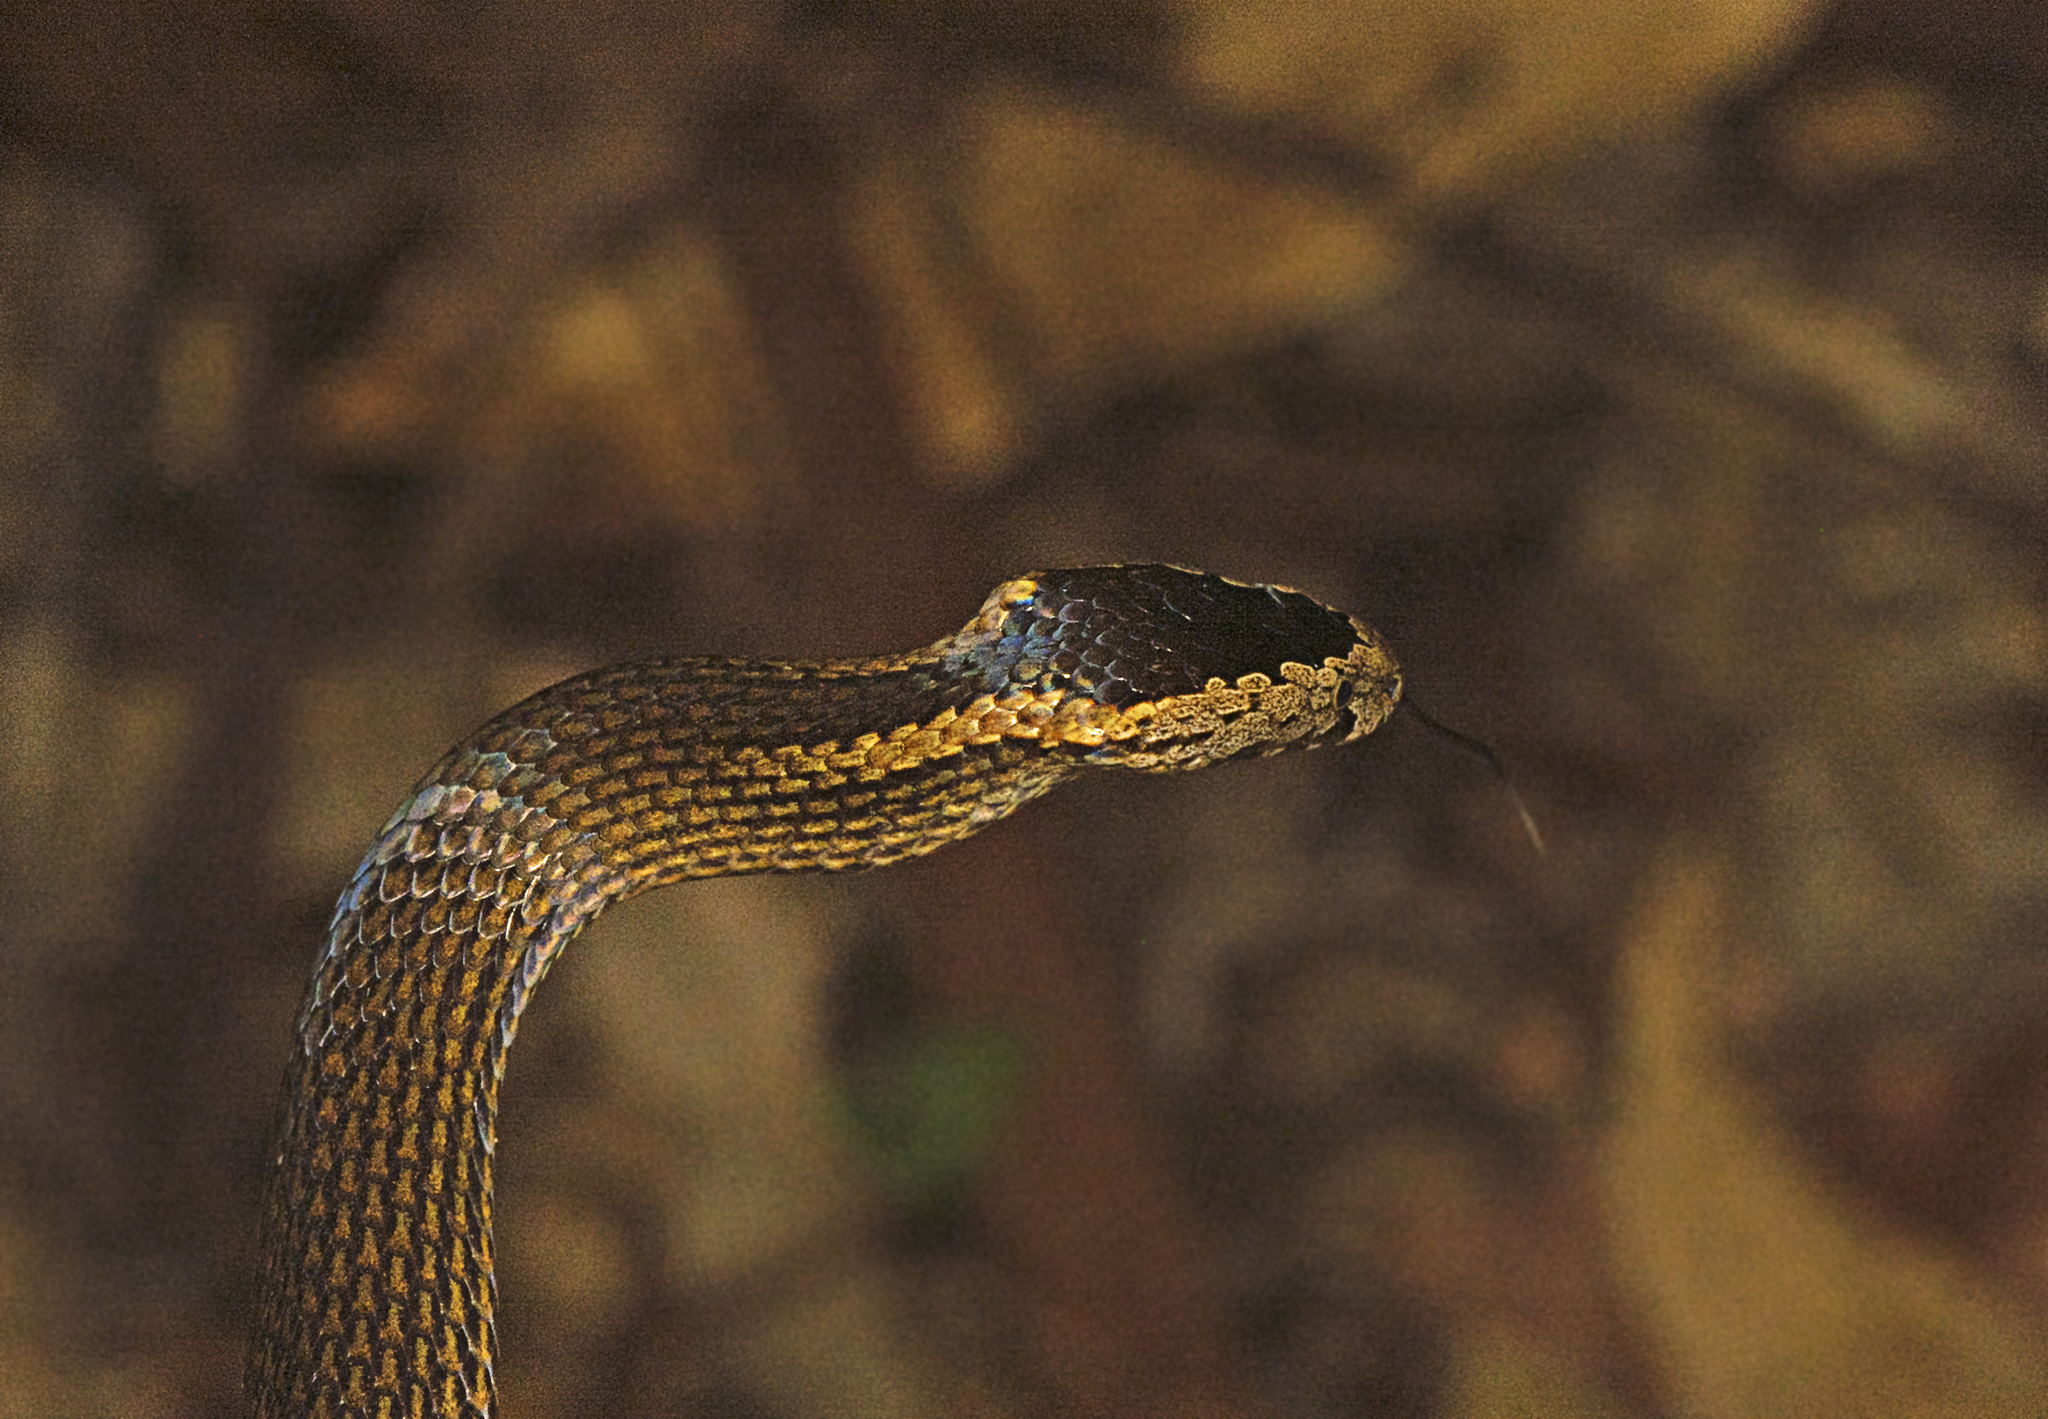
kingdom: Animalia
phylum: Chordata
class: Squamata
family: Elapidae
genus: Cacophis
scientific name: Cacophis squamulosus
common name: Golden crowned snake
